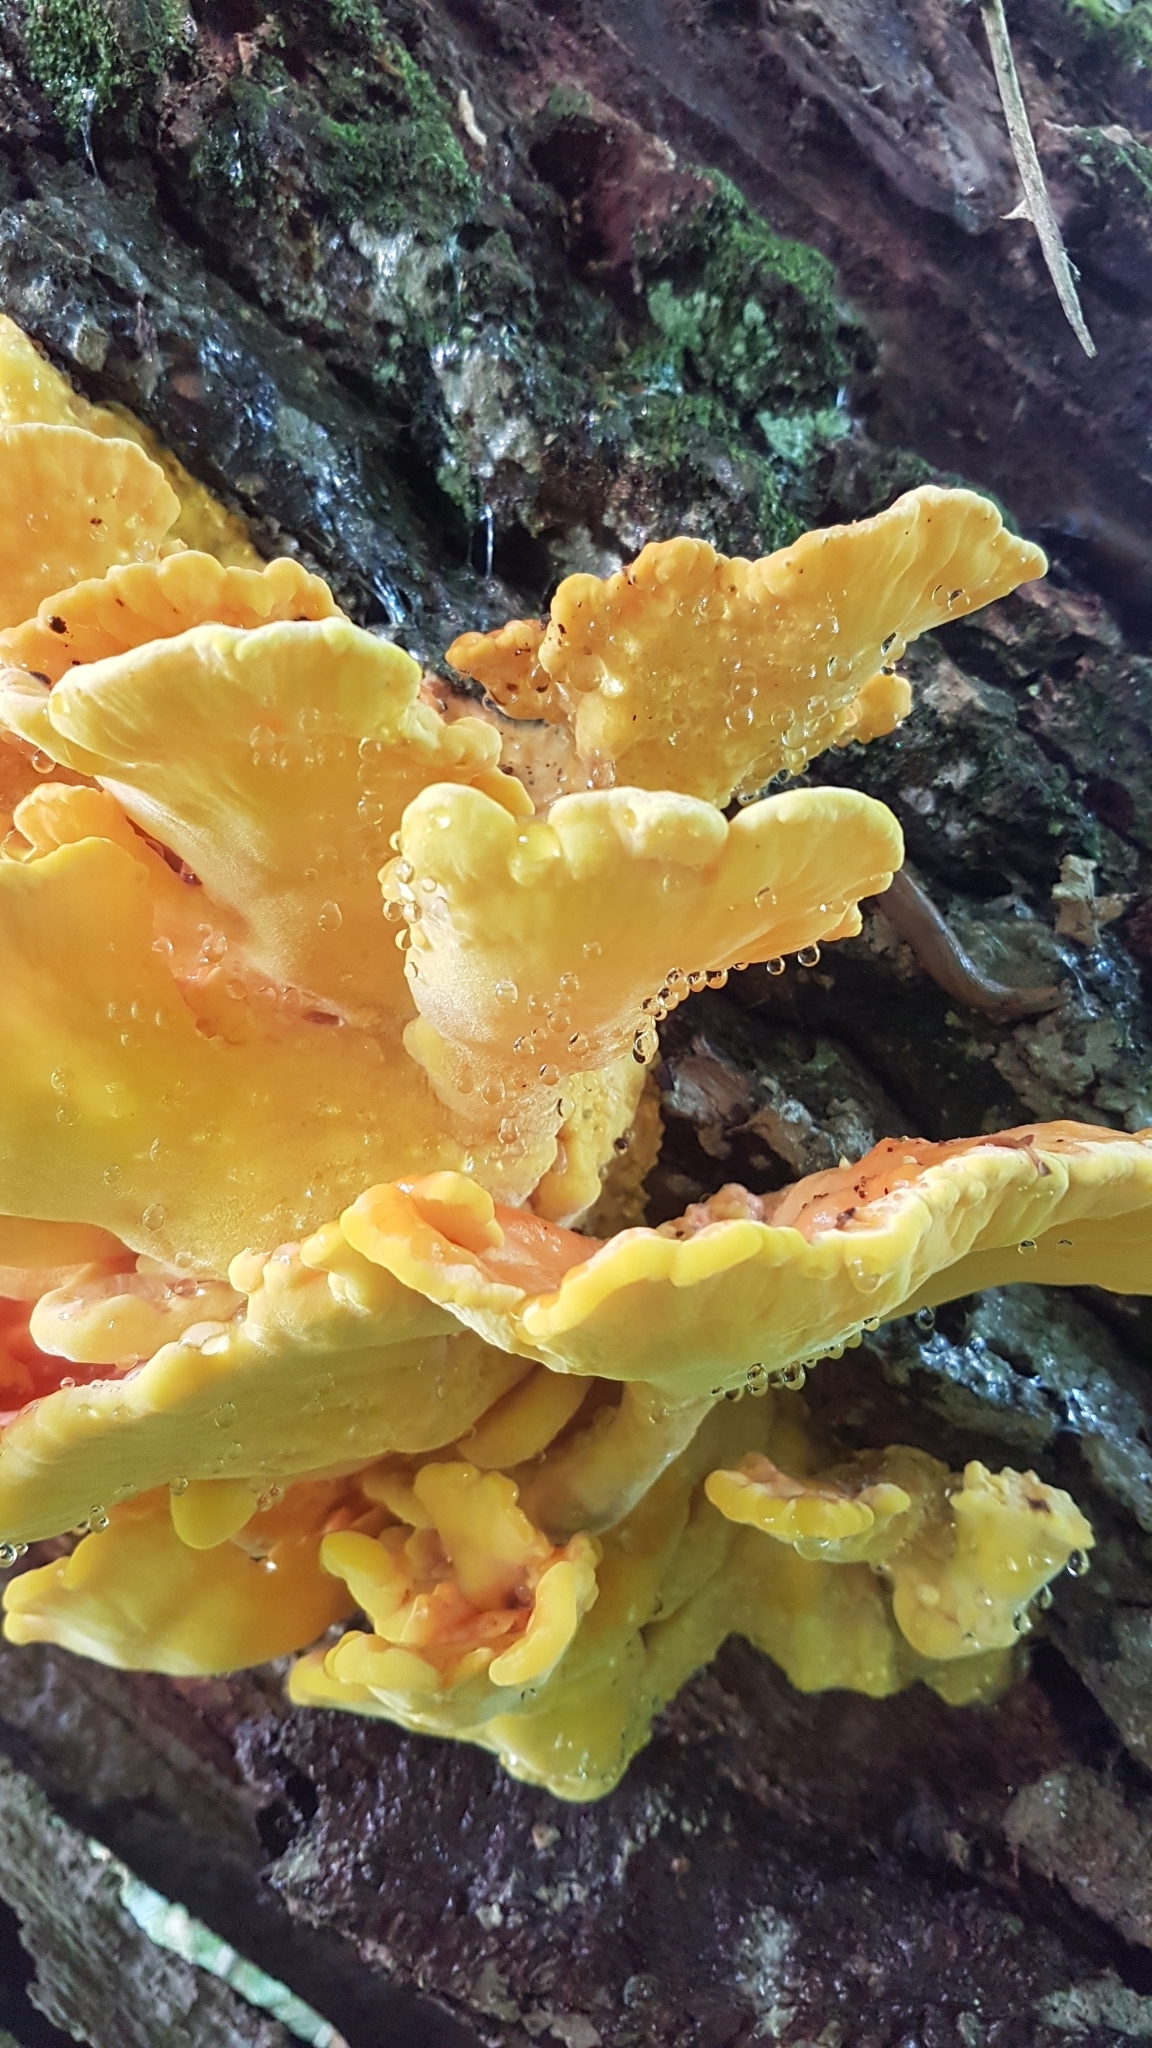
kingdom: Fungi
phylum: Basidiomycota
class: Agaricomycetes
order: Polyporales
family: Laetiporaceae
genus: Laetiporus
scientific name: Laetiporus sulphureus
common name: Chicken of the woods
